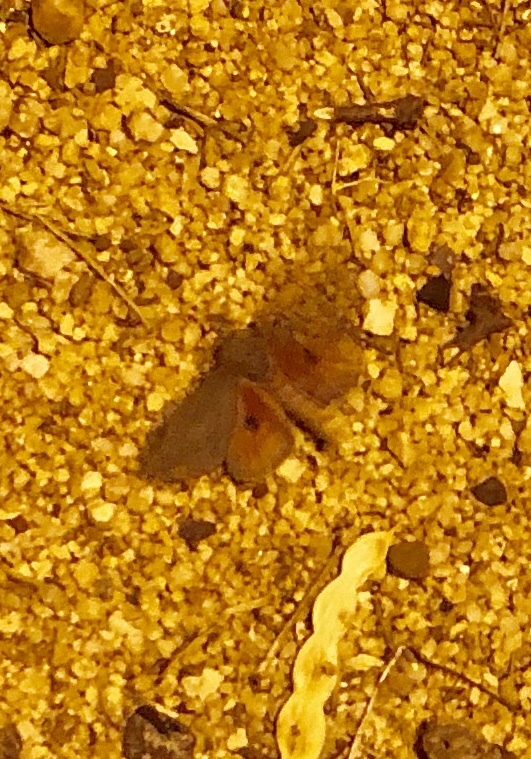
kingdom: Animalia
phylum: Arthropoda
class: Insecta
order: Lepidoptera
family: Saturniidae
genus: Syssphinx
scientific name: Syssphinx hubbardi
